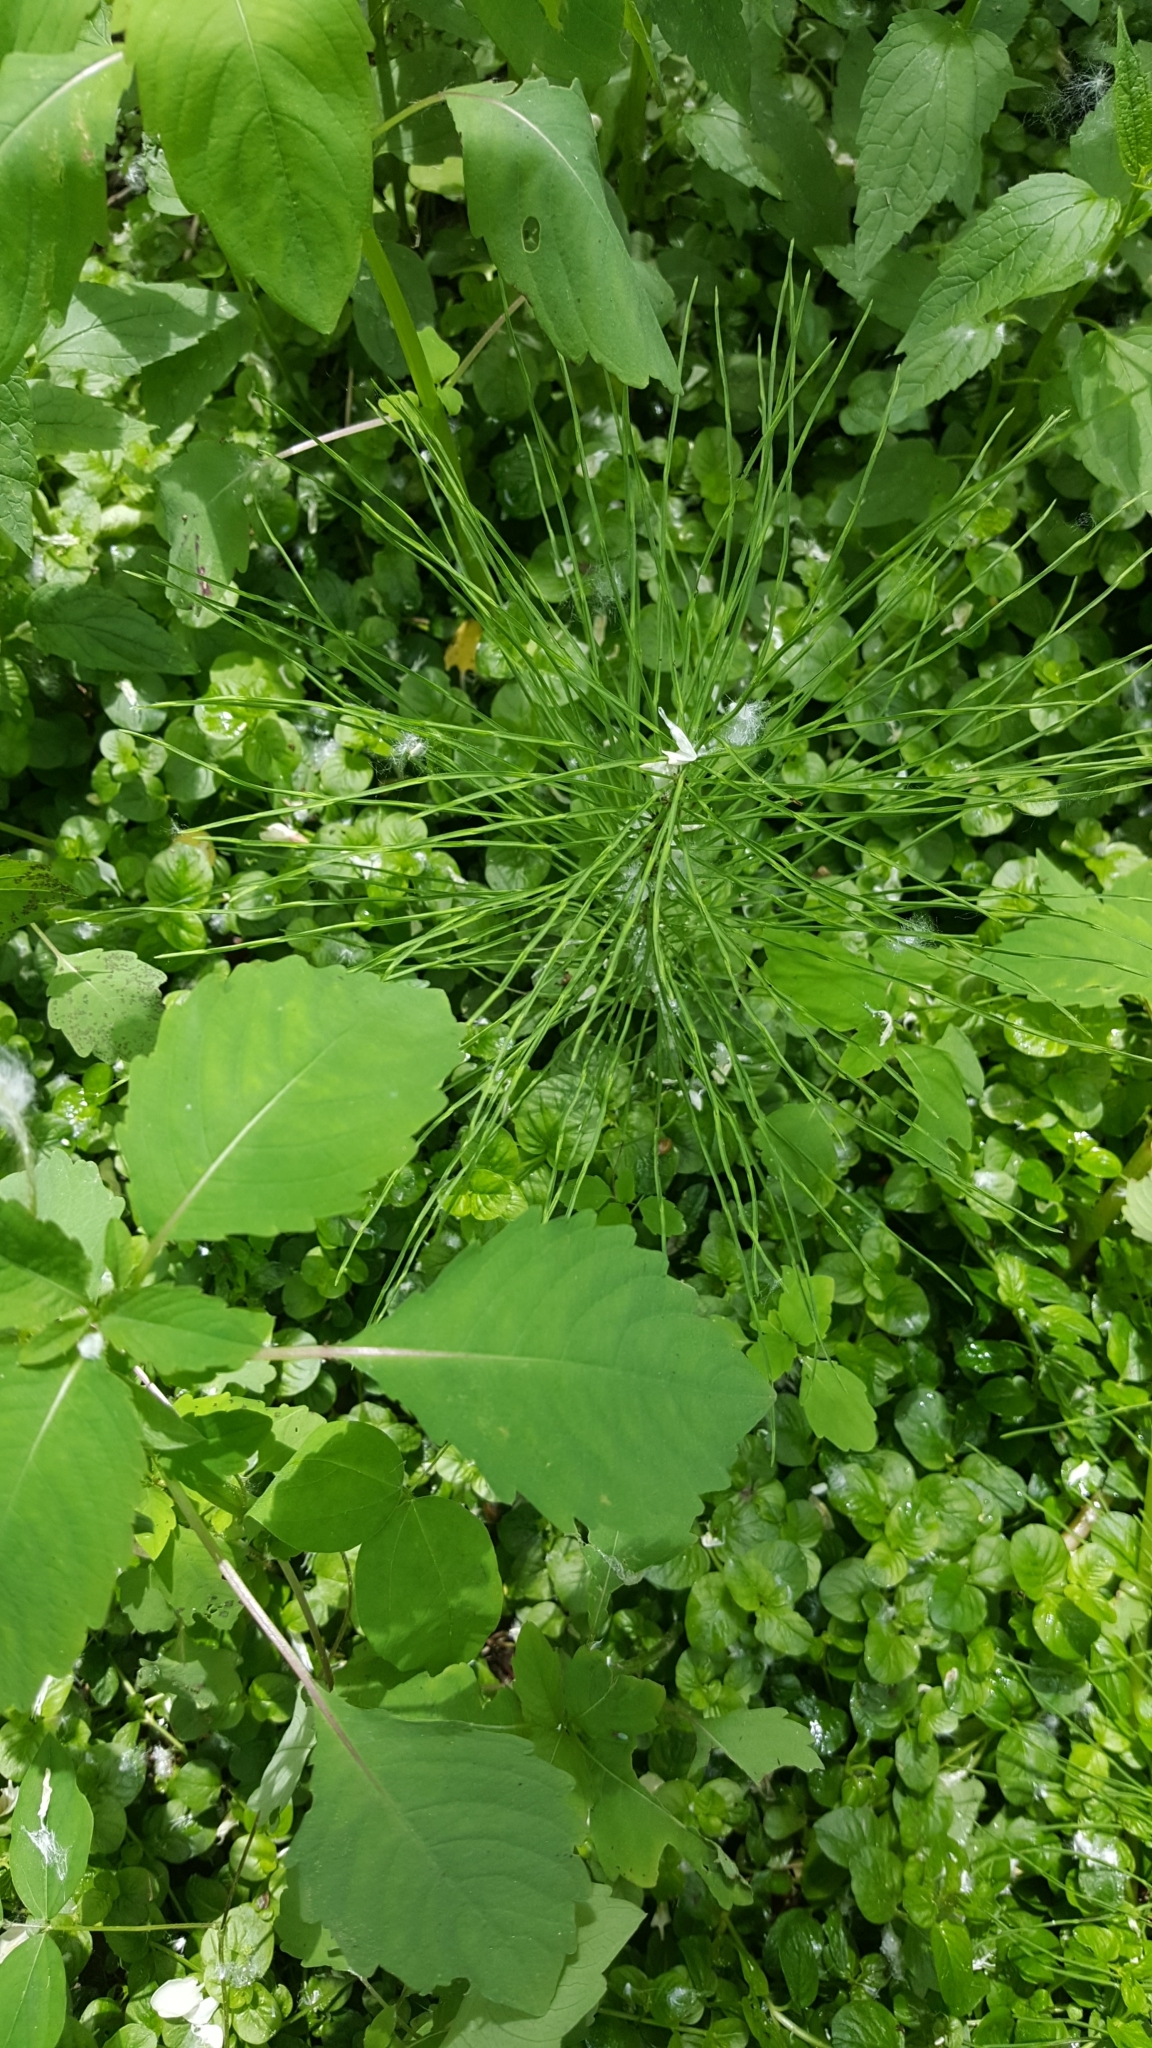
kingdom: Plantae
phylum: Tracheophyta
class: Polypodiopsida
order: Equisetales
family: Equisetaceae
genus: Equisetum
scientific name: Equisetum arvense
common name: Field horsetail
